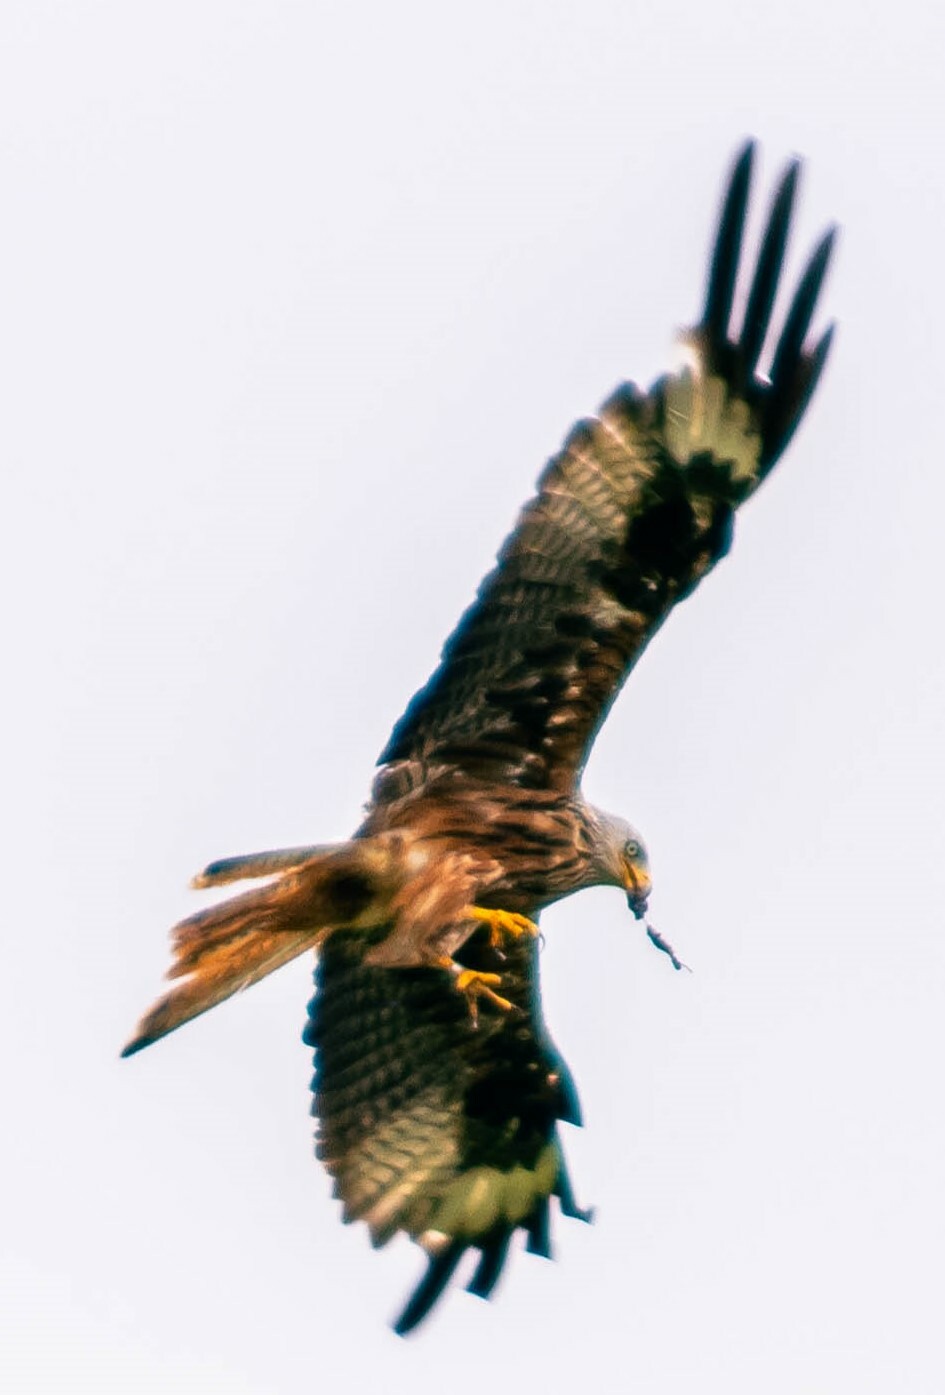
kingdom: Animalia
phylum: Chordata
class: Aves
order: Accipitriformes
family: Accipitridae
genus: Milvus
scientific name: Milvus milvus
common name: Red kite
